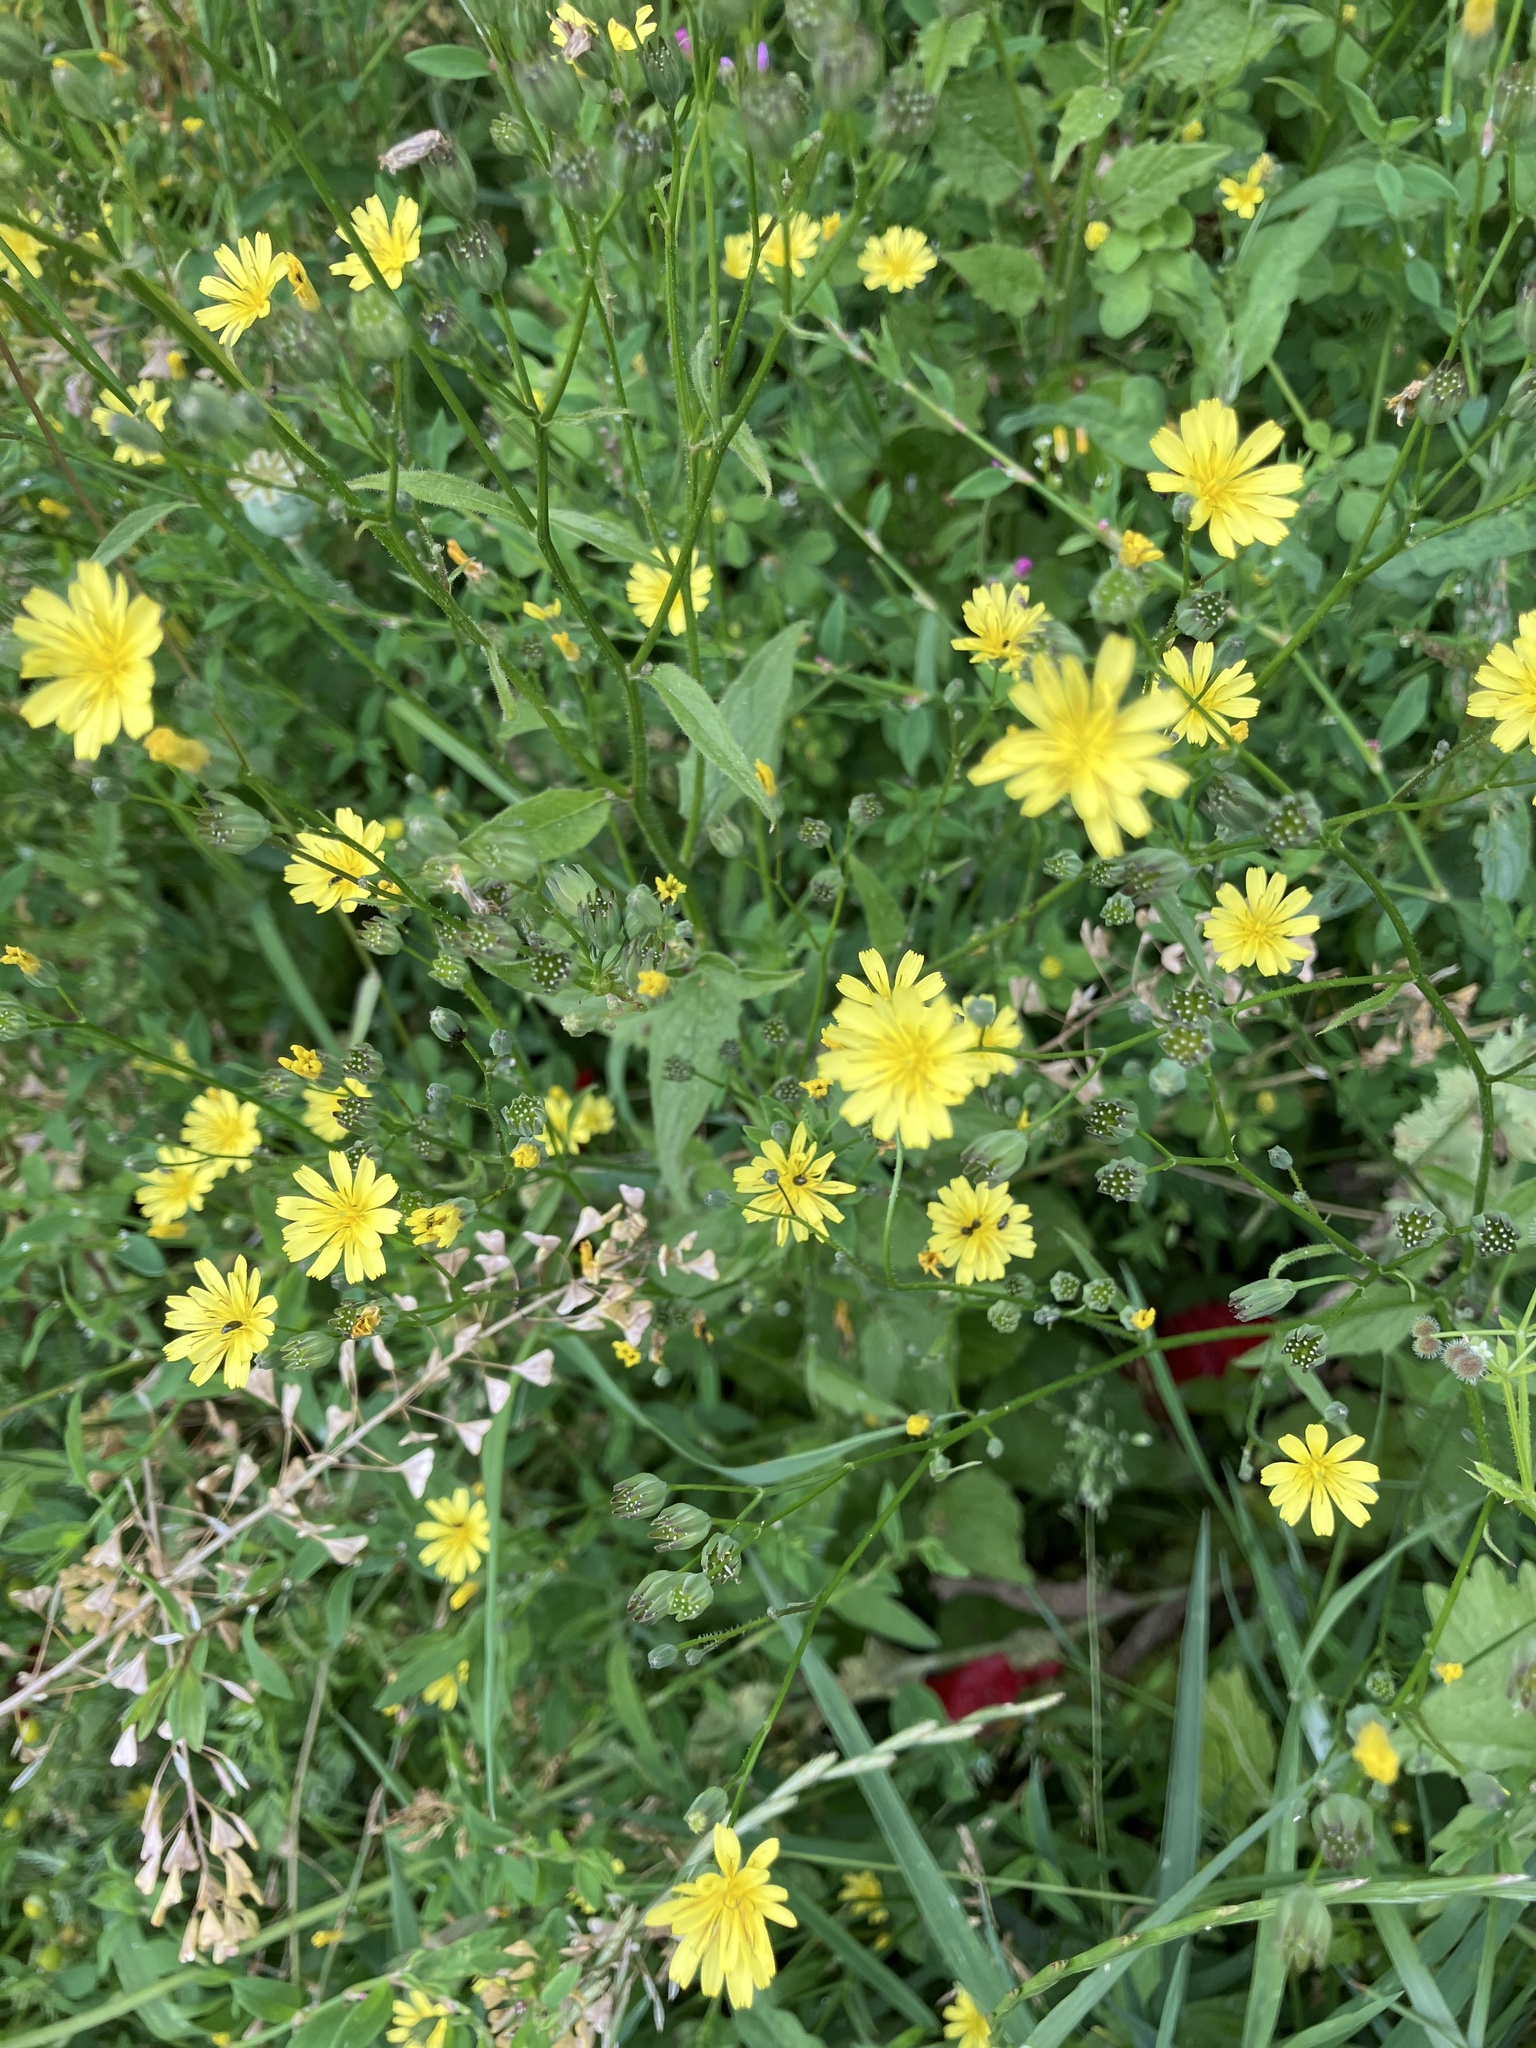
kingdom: Plantae
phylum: Tracheophyta
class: Magnoliopsida
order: Asterales
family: Asteraceae
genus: Lapsana
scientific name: Lapsana communis
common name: Nipplewort
